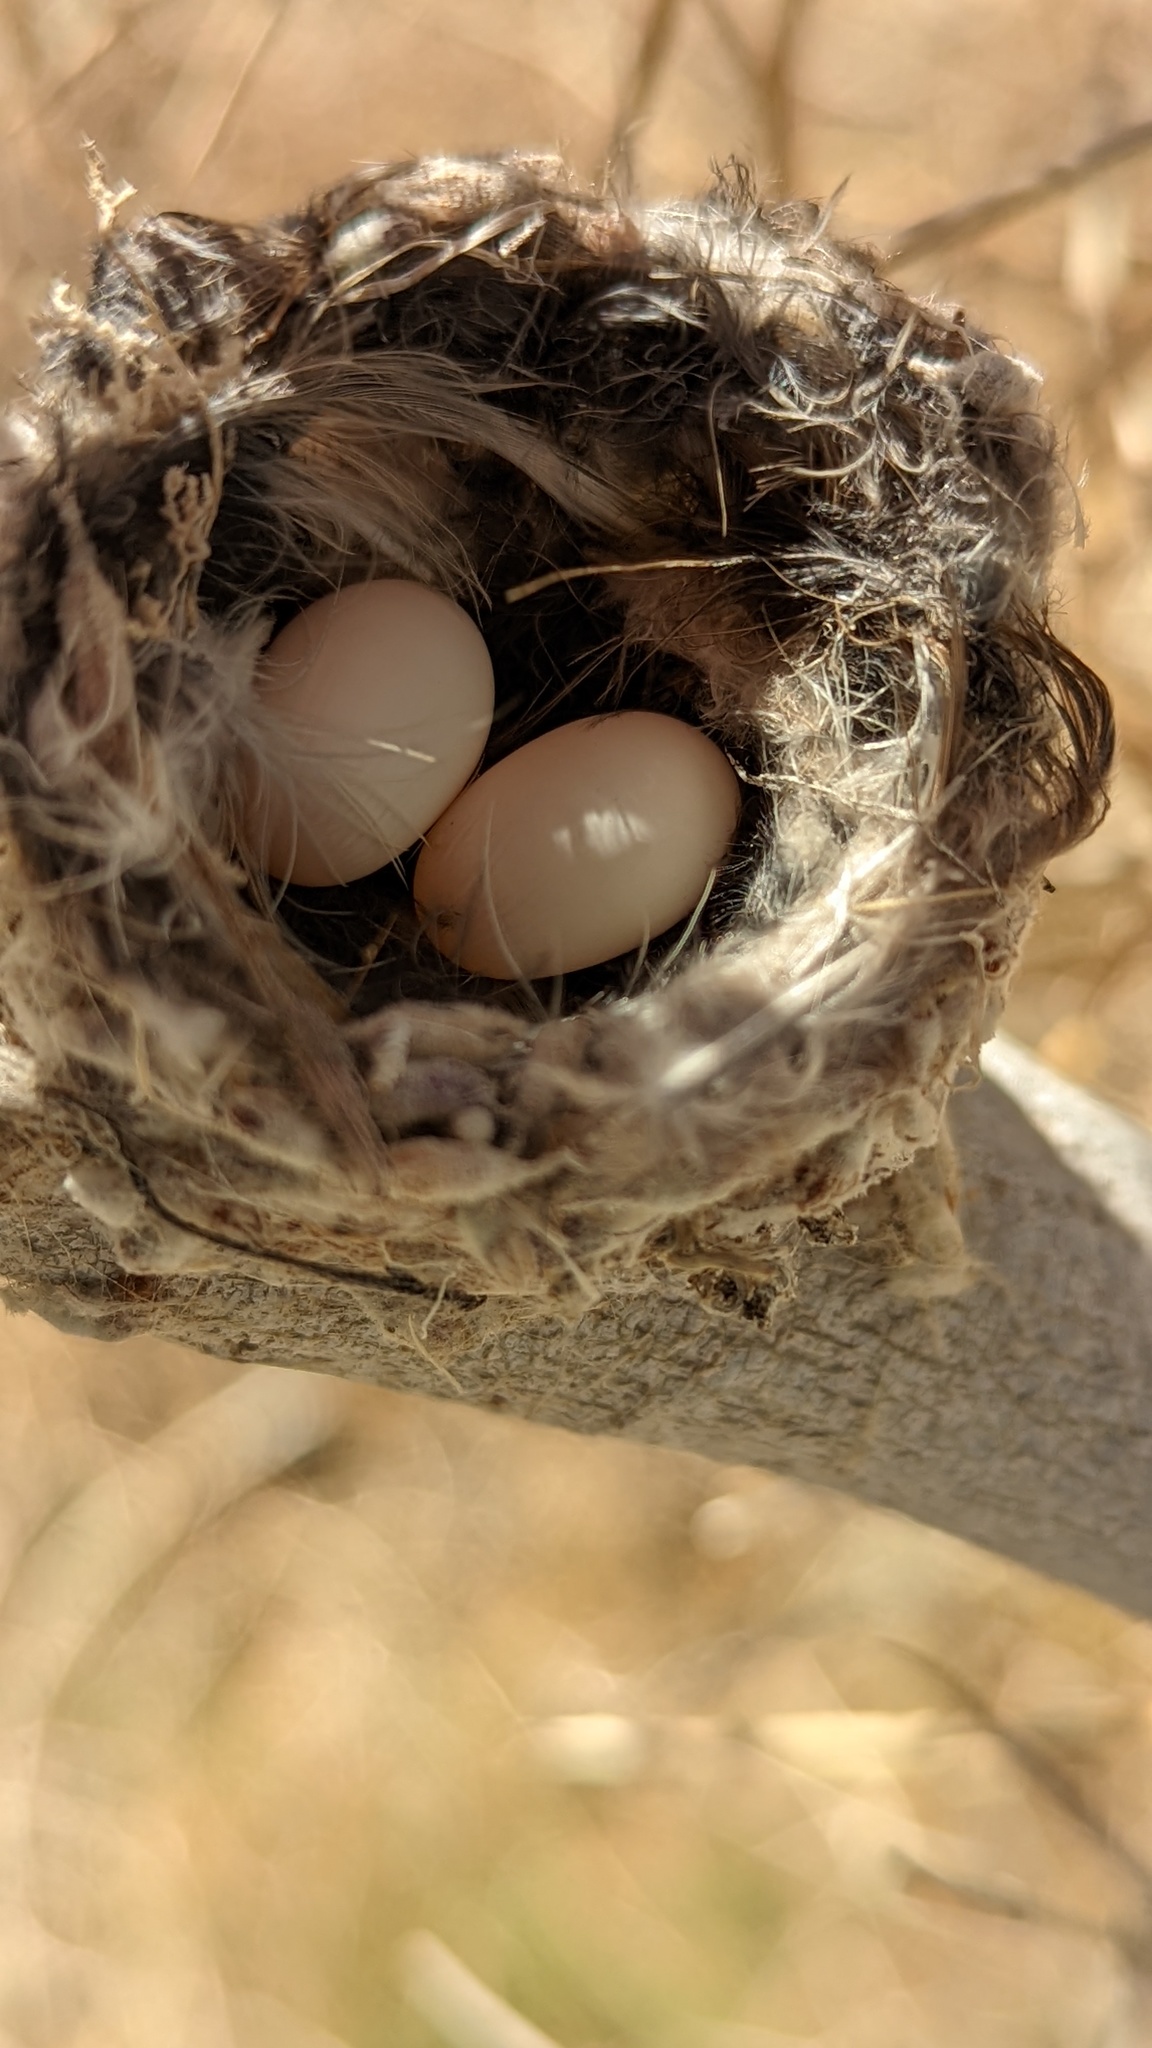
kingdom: Animalia
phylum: Chordata
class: Aves
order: Apodiformes
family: Trochilidae
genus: Calypte
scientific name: Calypte costae
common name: Costa's hummingbird
